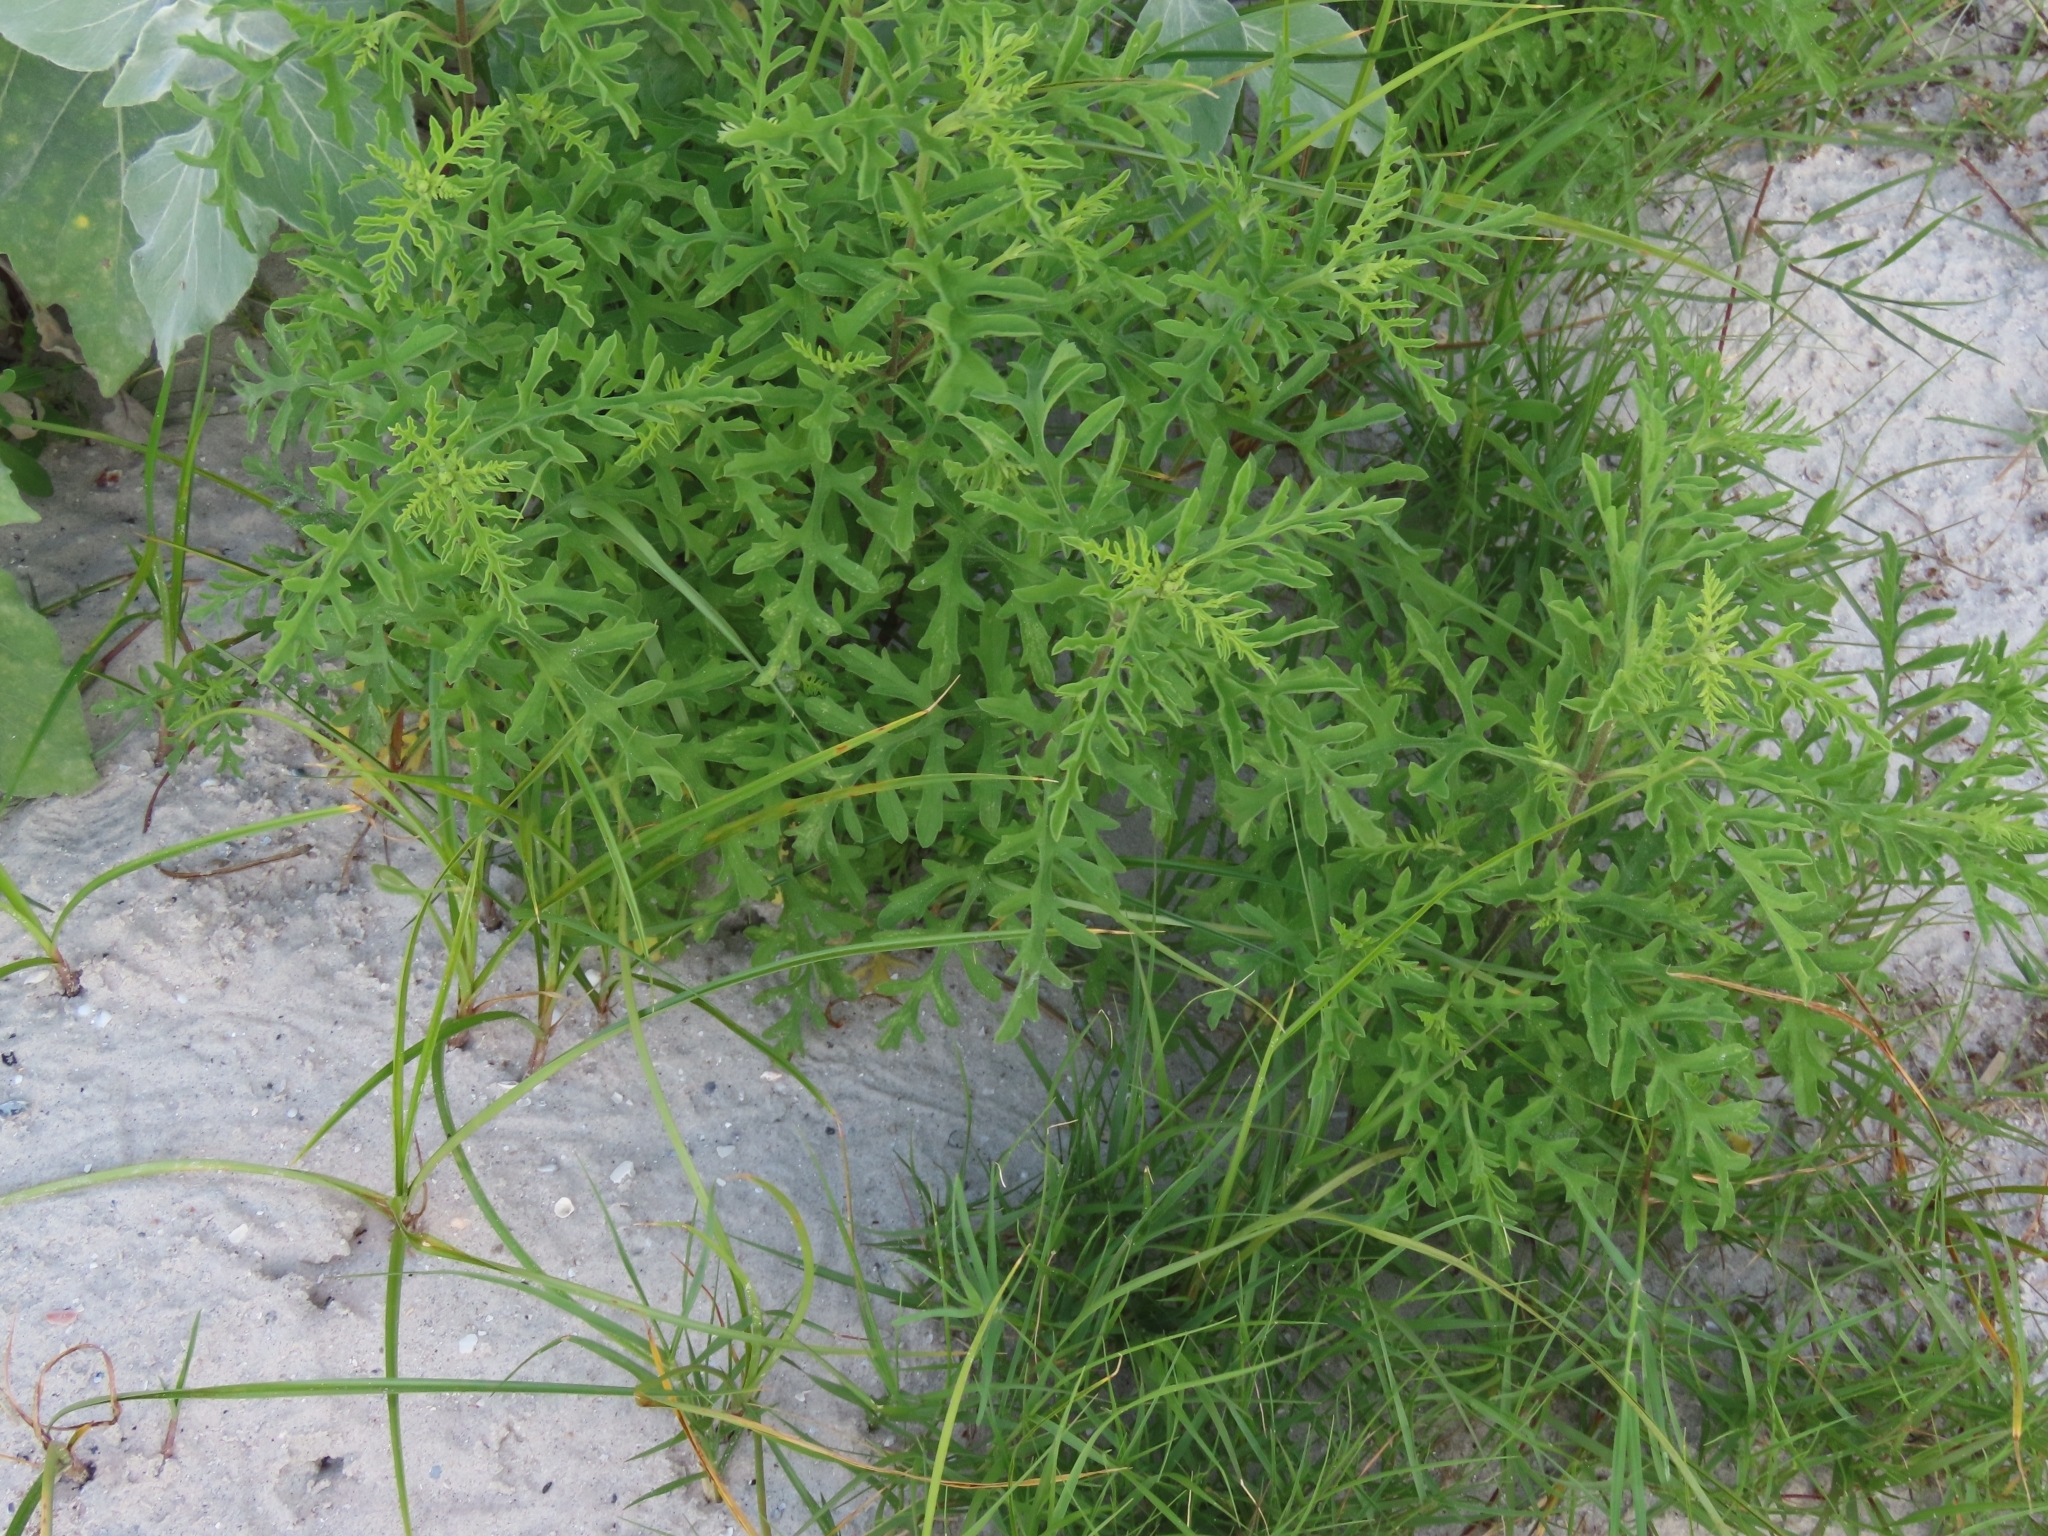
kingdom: Plantae
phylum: Tracheophyta
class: Magnoliopsida
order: Asterales
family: Asteraceae
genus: Ambrosia
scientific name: Ambrosia artemisiifolia
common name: Annual ragweed
